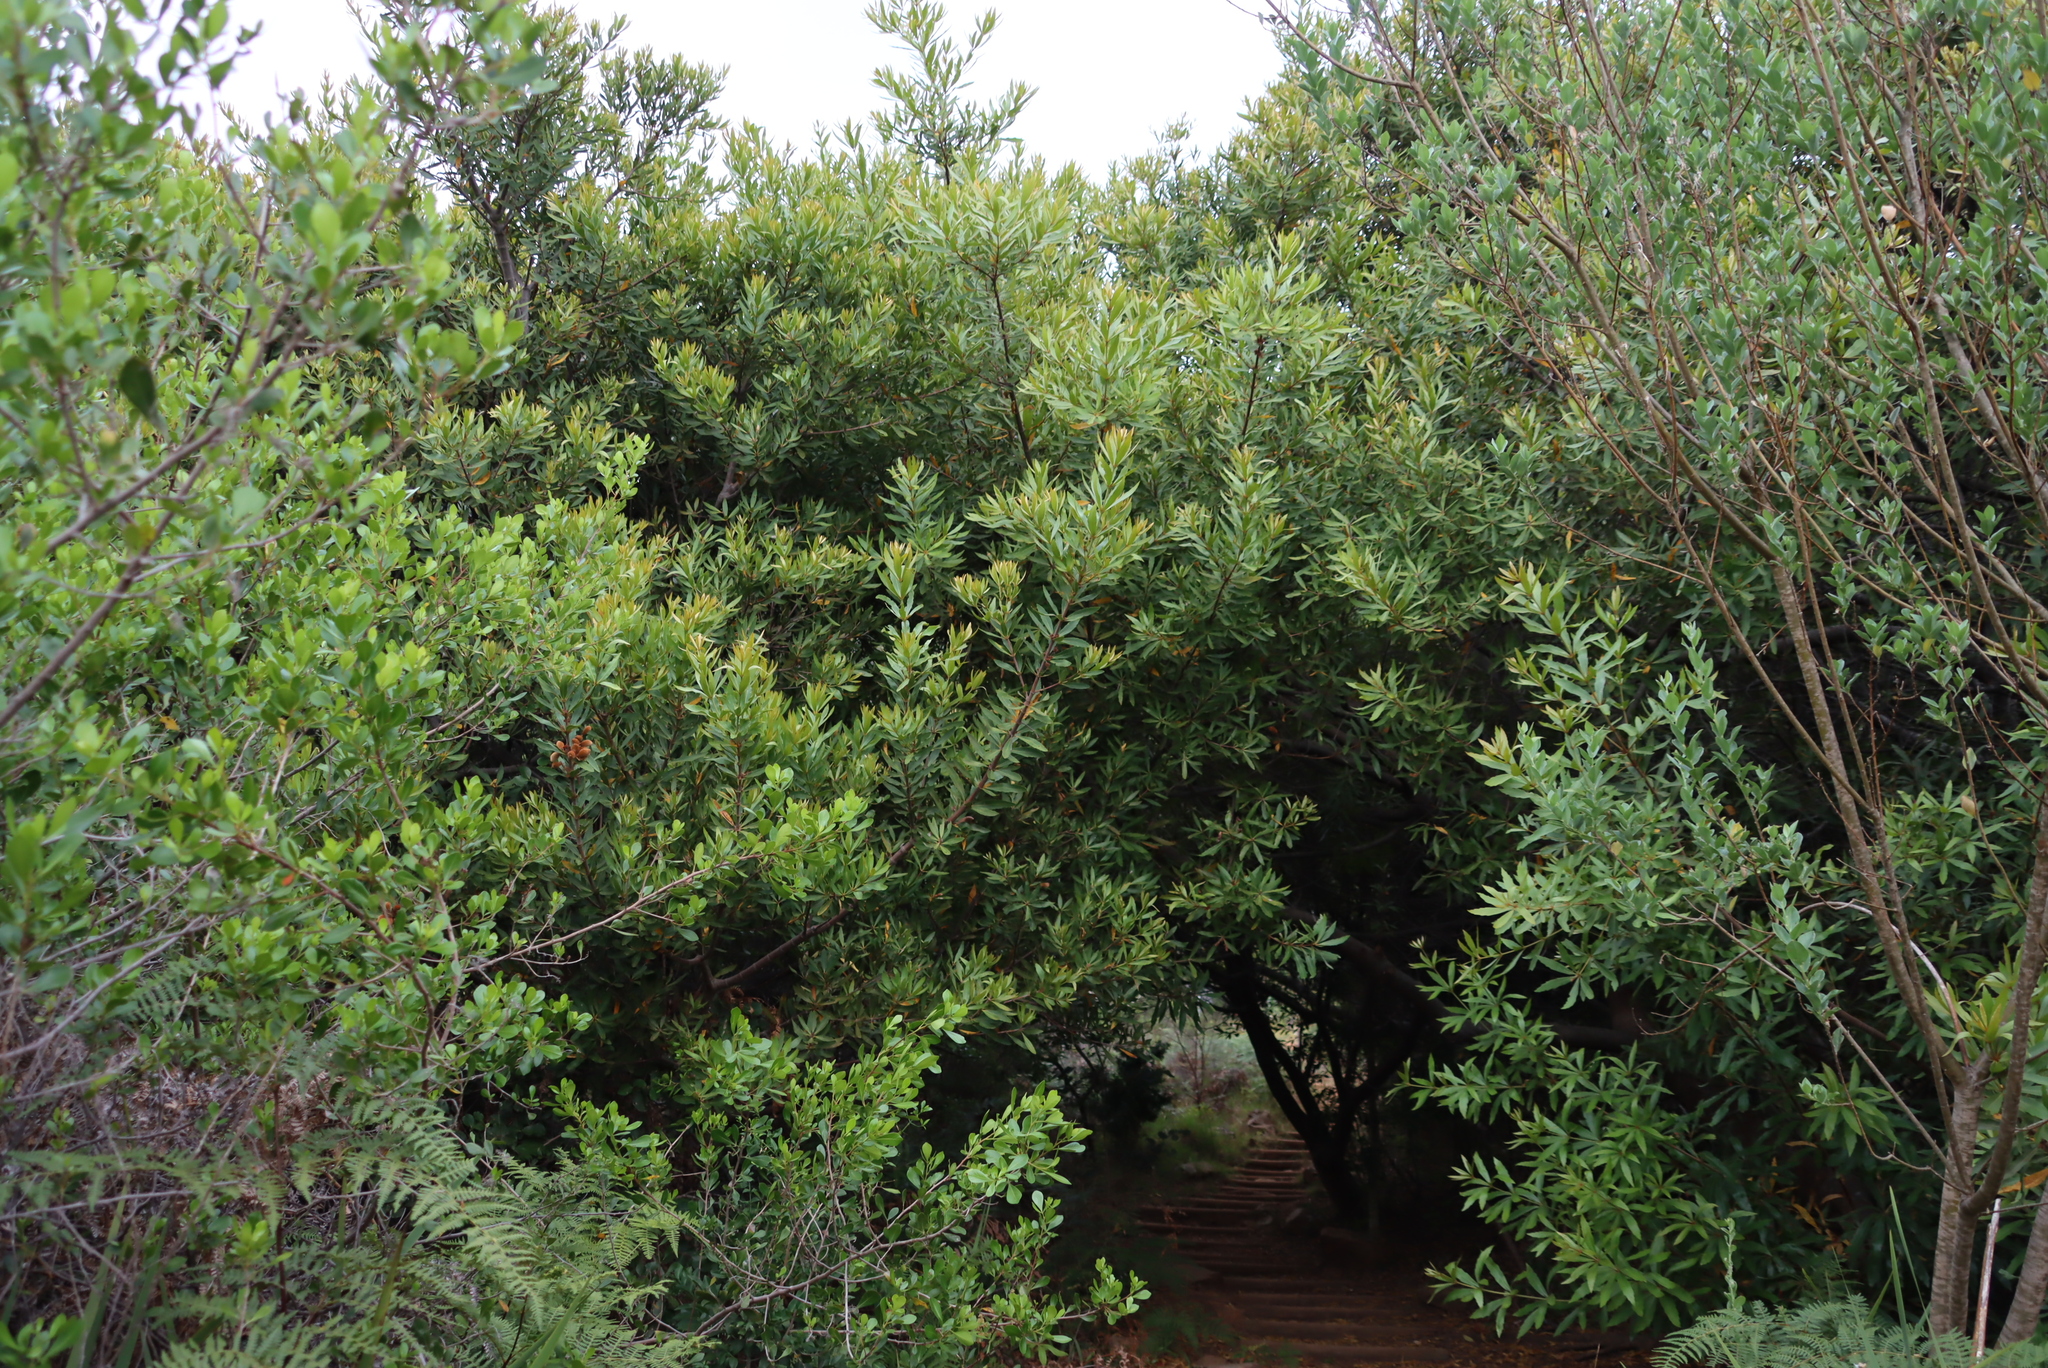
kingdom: Plantae
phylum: Tracheophyta
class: Magnoliopsida
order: Proteales
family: Proteaceae
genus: Brabejum
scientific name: Brabejum stellatifolium
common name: Wild almond
